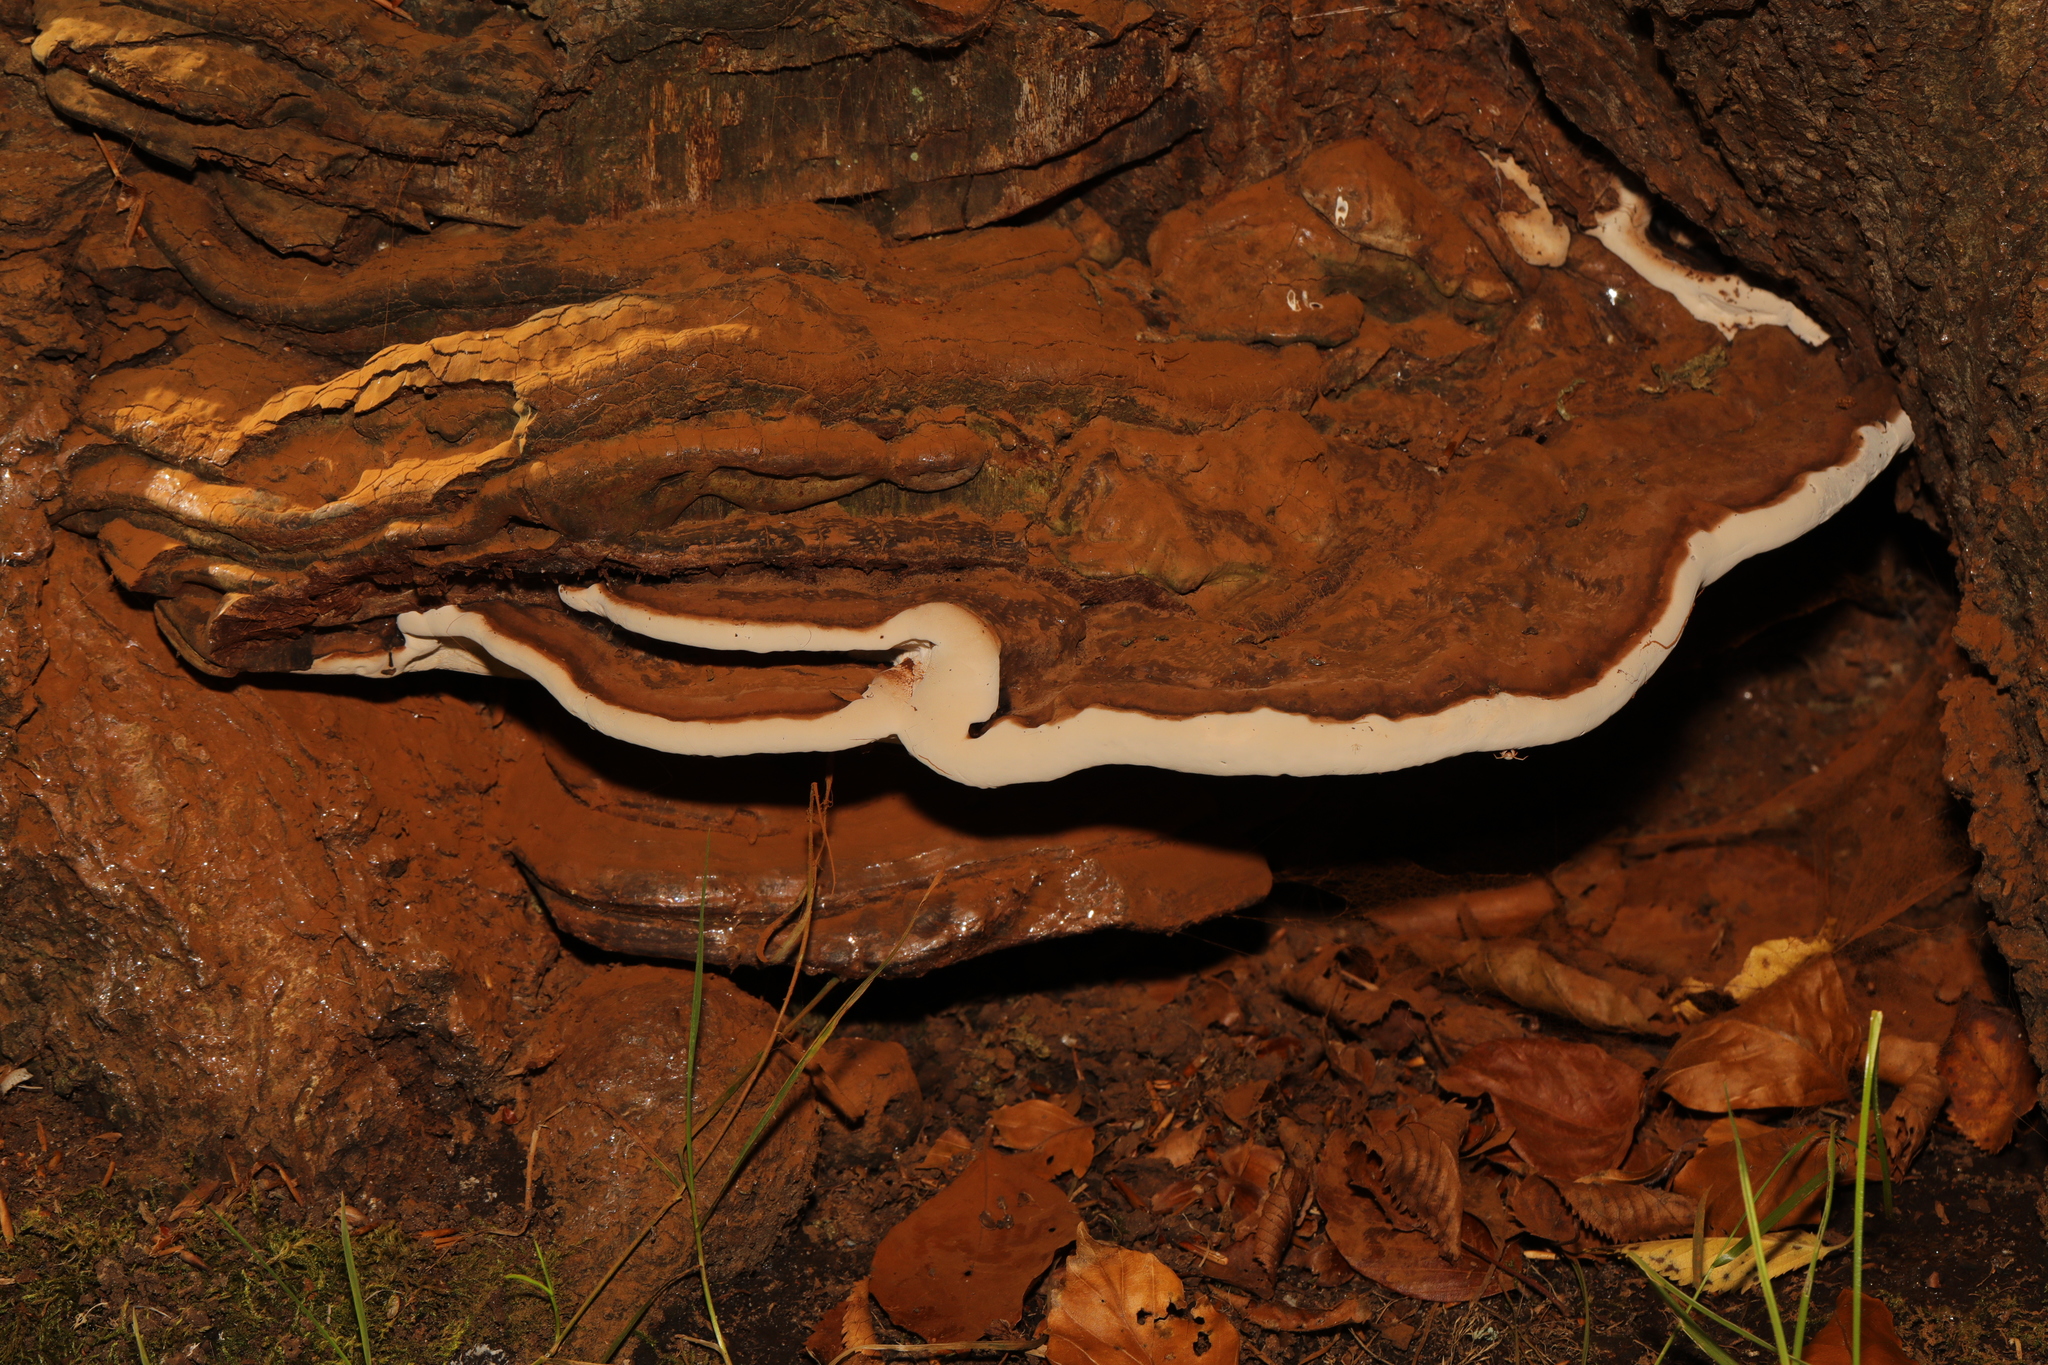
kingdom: Fungi
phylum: Basidiomycota
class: Agaricomycetes
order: Polyporales
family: Polyporaceae
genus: Ganoderma
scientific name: Ganoderma applanatum
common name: Artist's bracket
